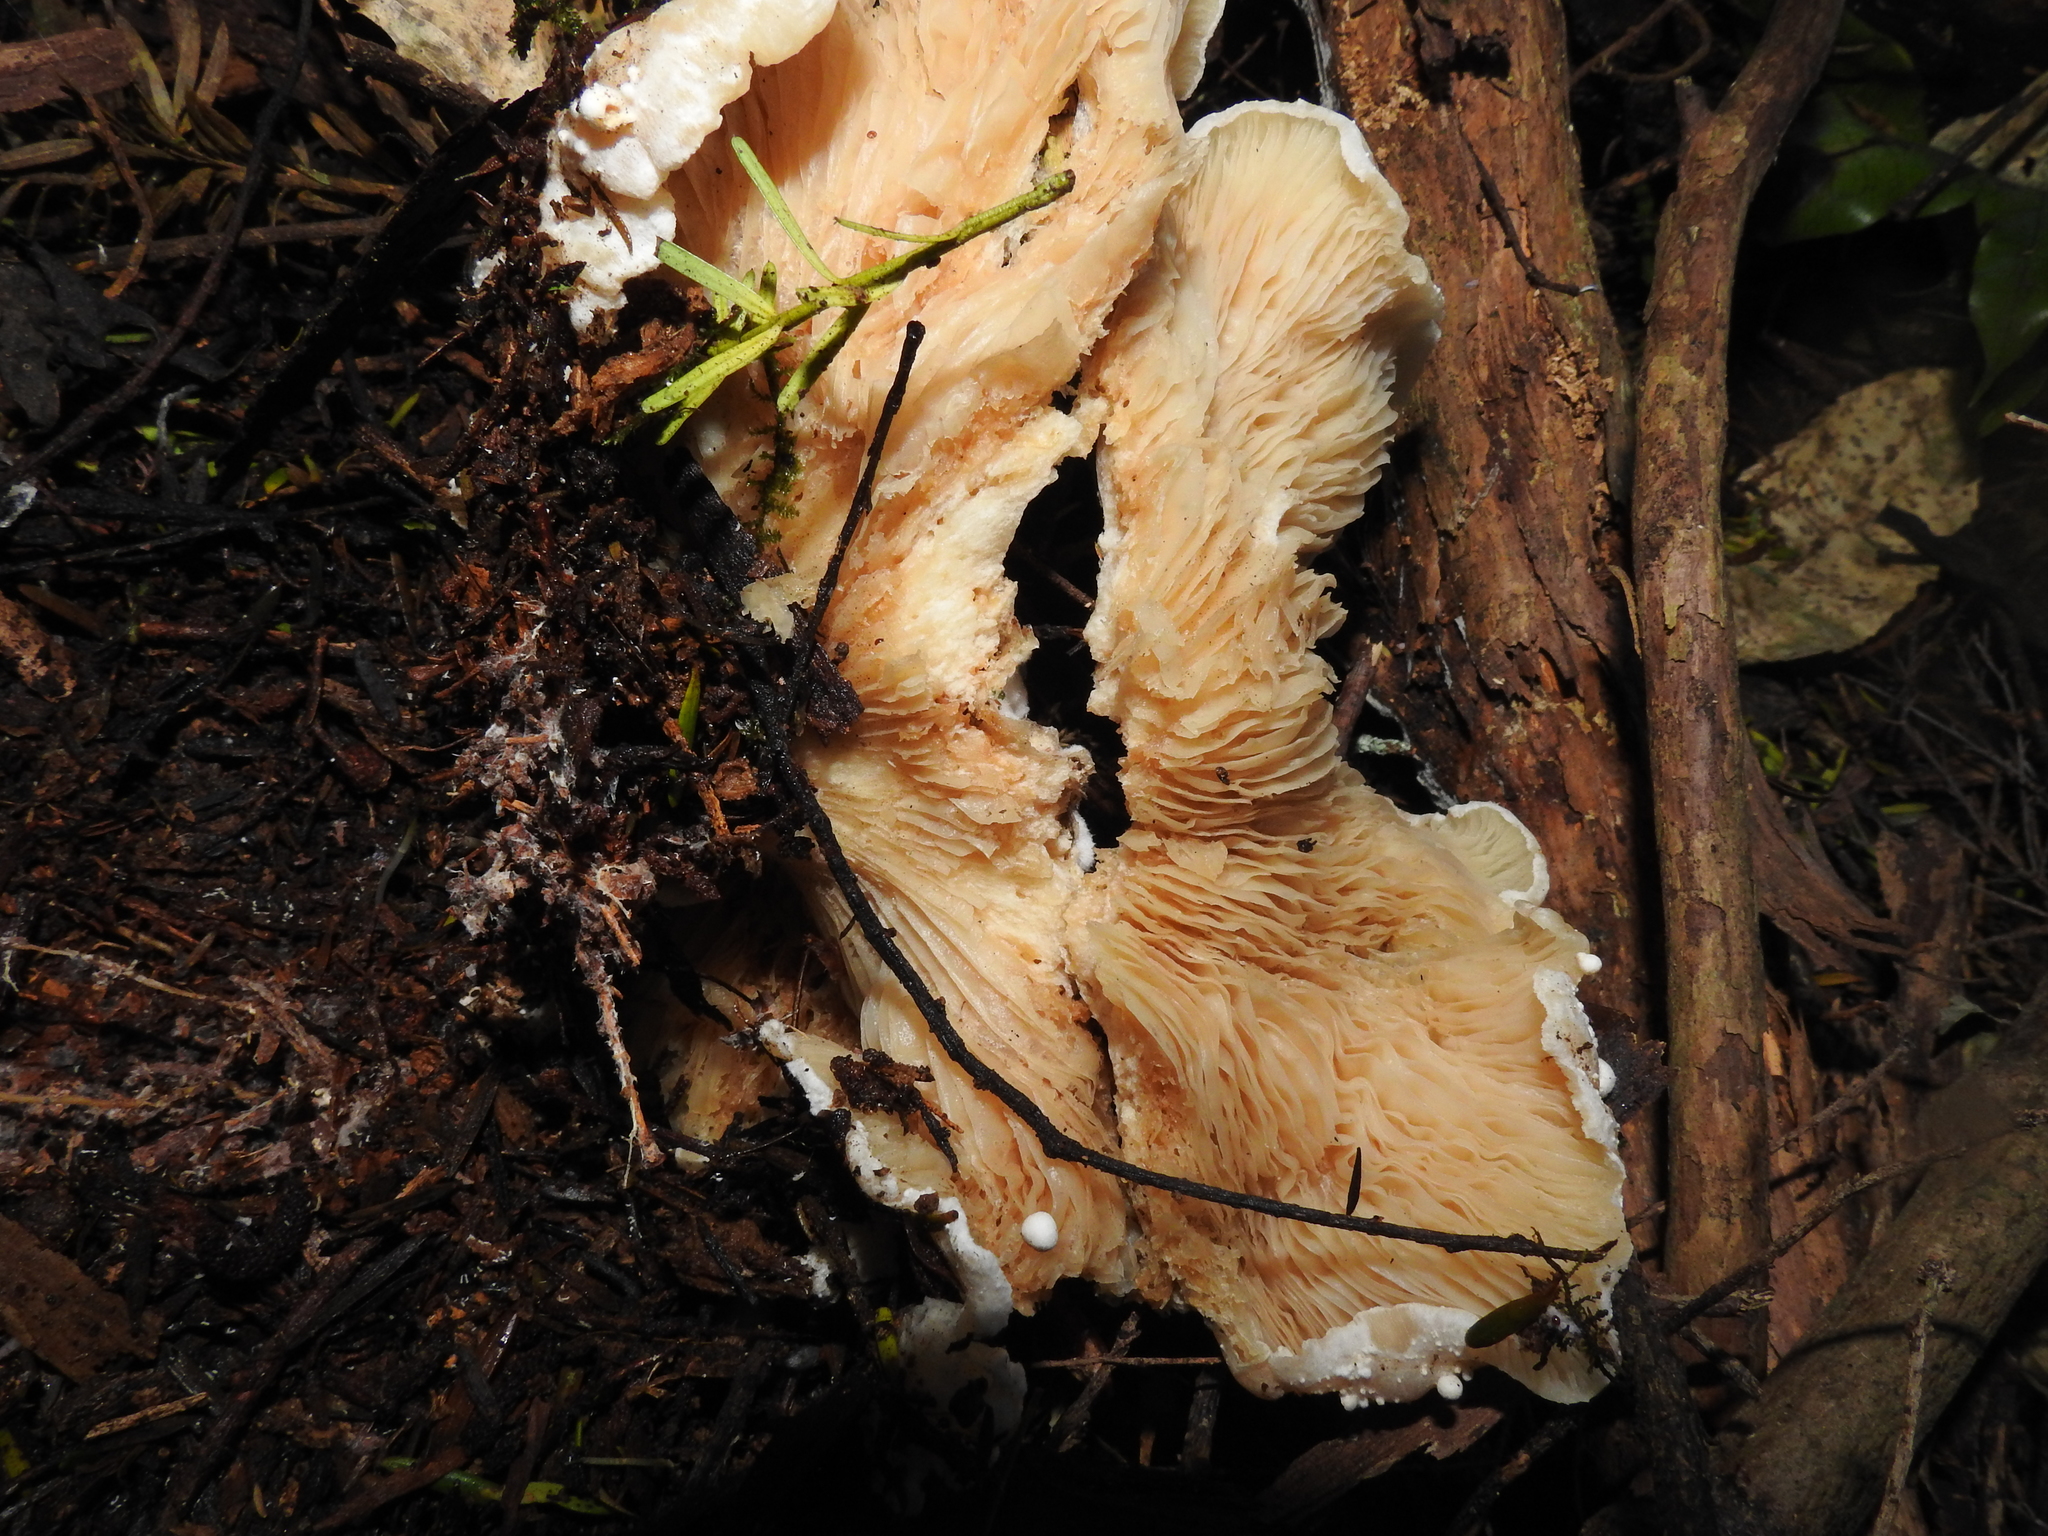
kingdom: Fungi
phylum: Basidiomycota
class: Agaricomycetes
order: Agaricales
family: Tricholomataceae
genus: Clitocybe
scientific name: Clitocybe nebularis
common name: Clouded agaric
